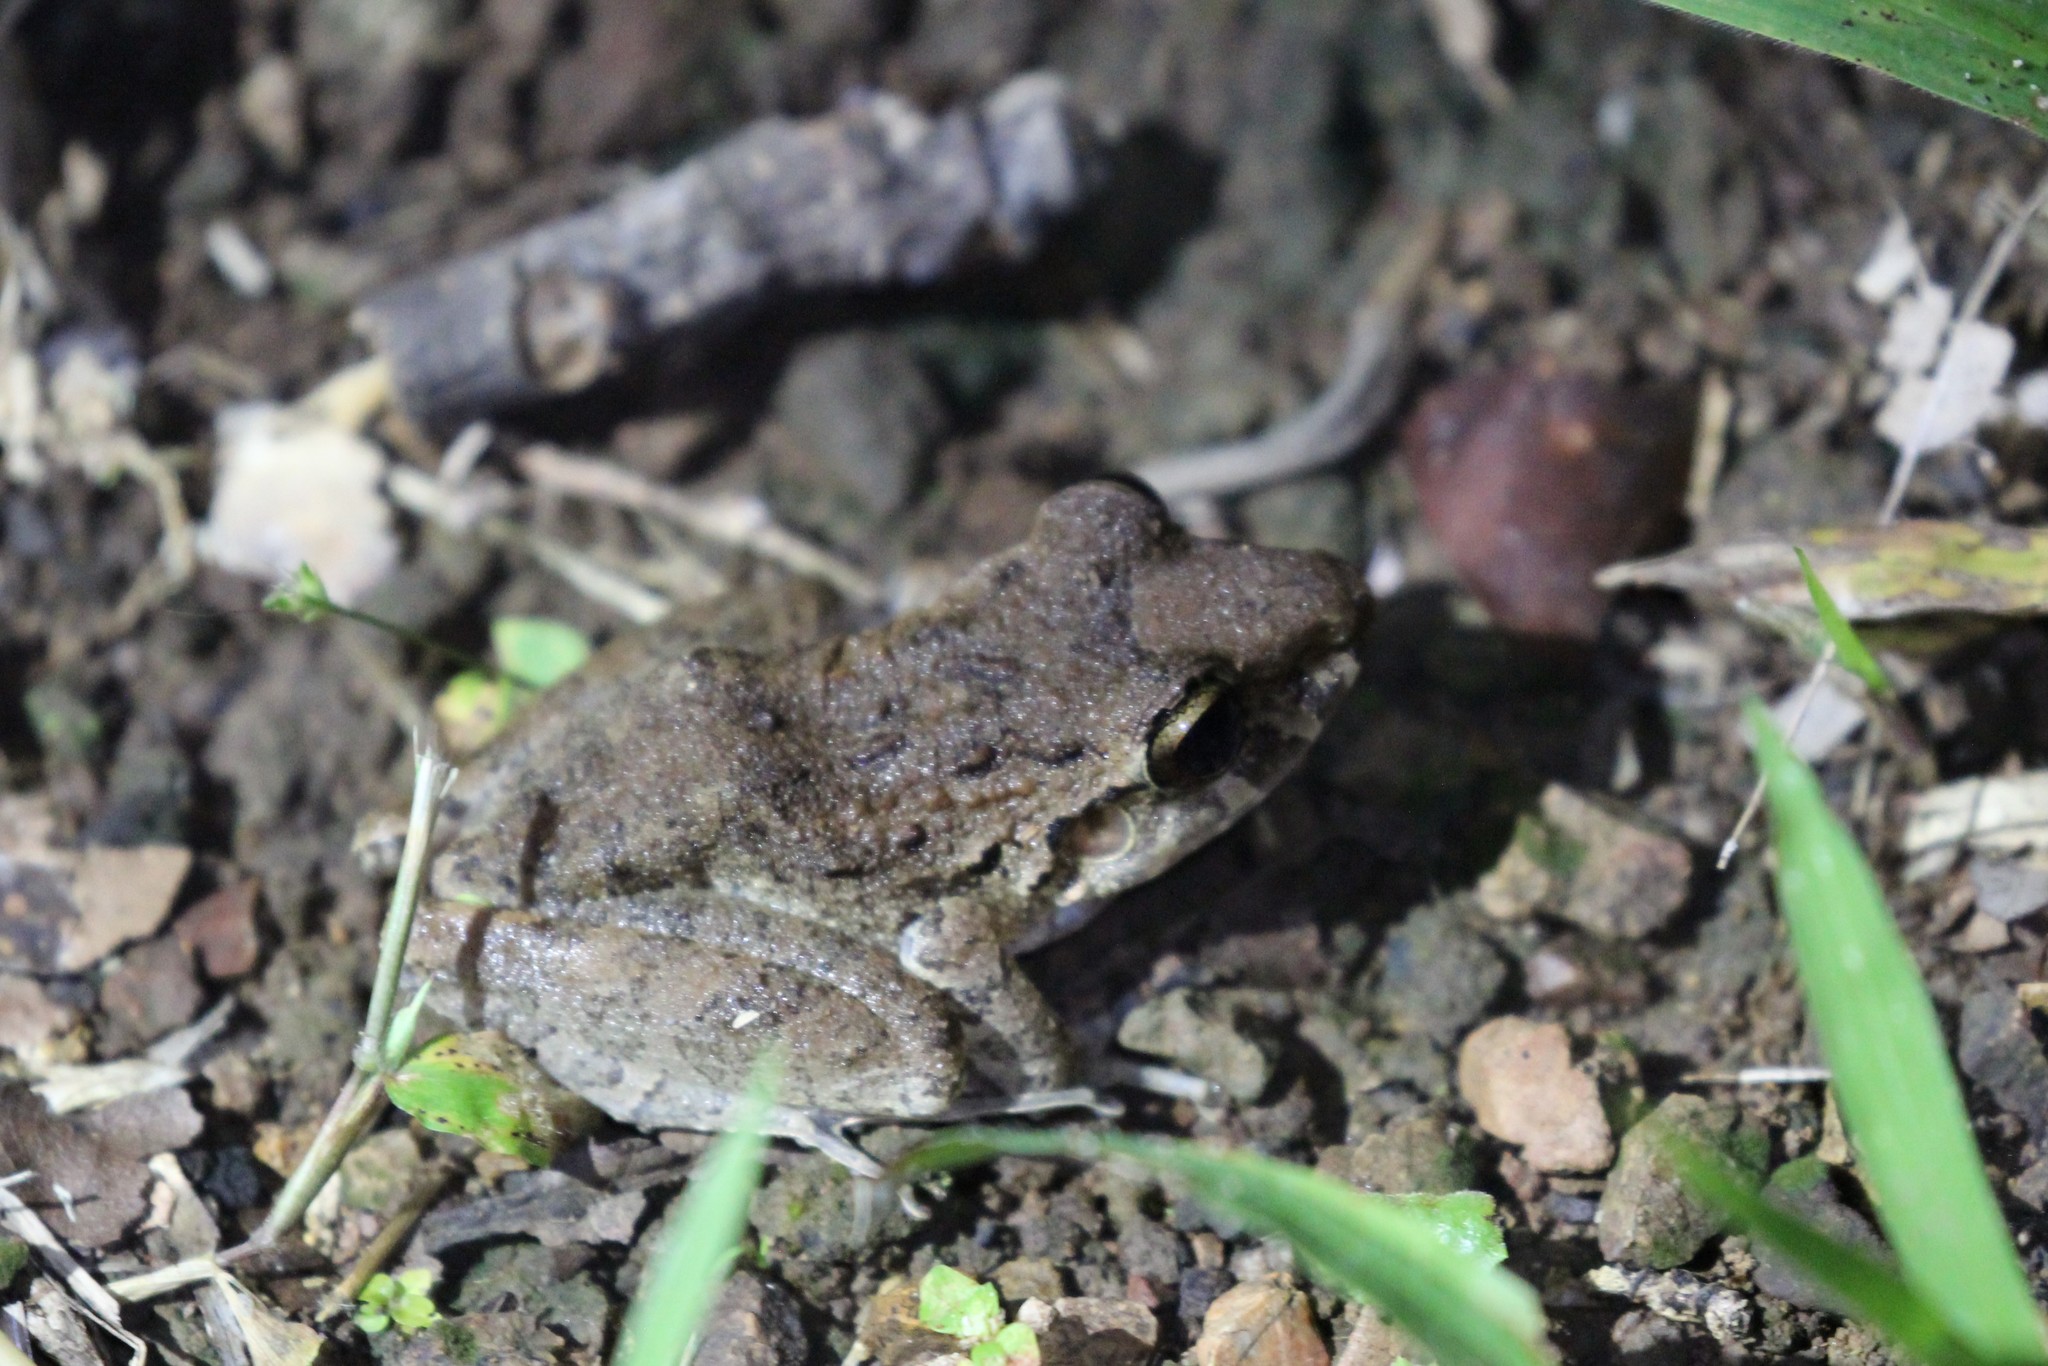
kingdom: Animalia
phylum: Chordata
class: Amphibia
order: Anura
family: Craugastoridae
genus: Craugastor
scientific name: Craugastor
